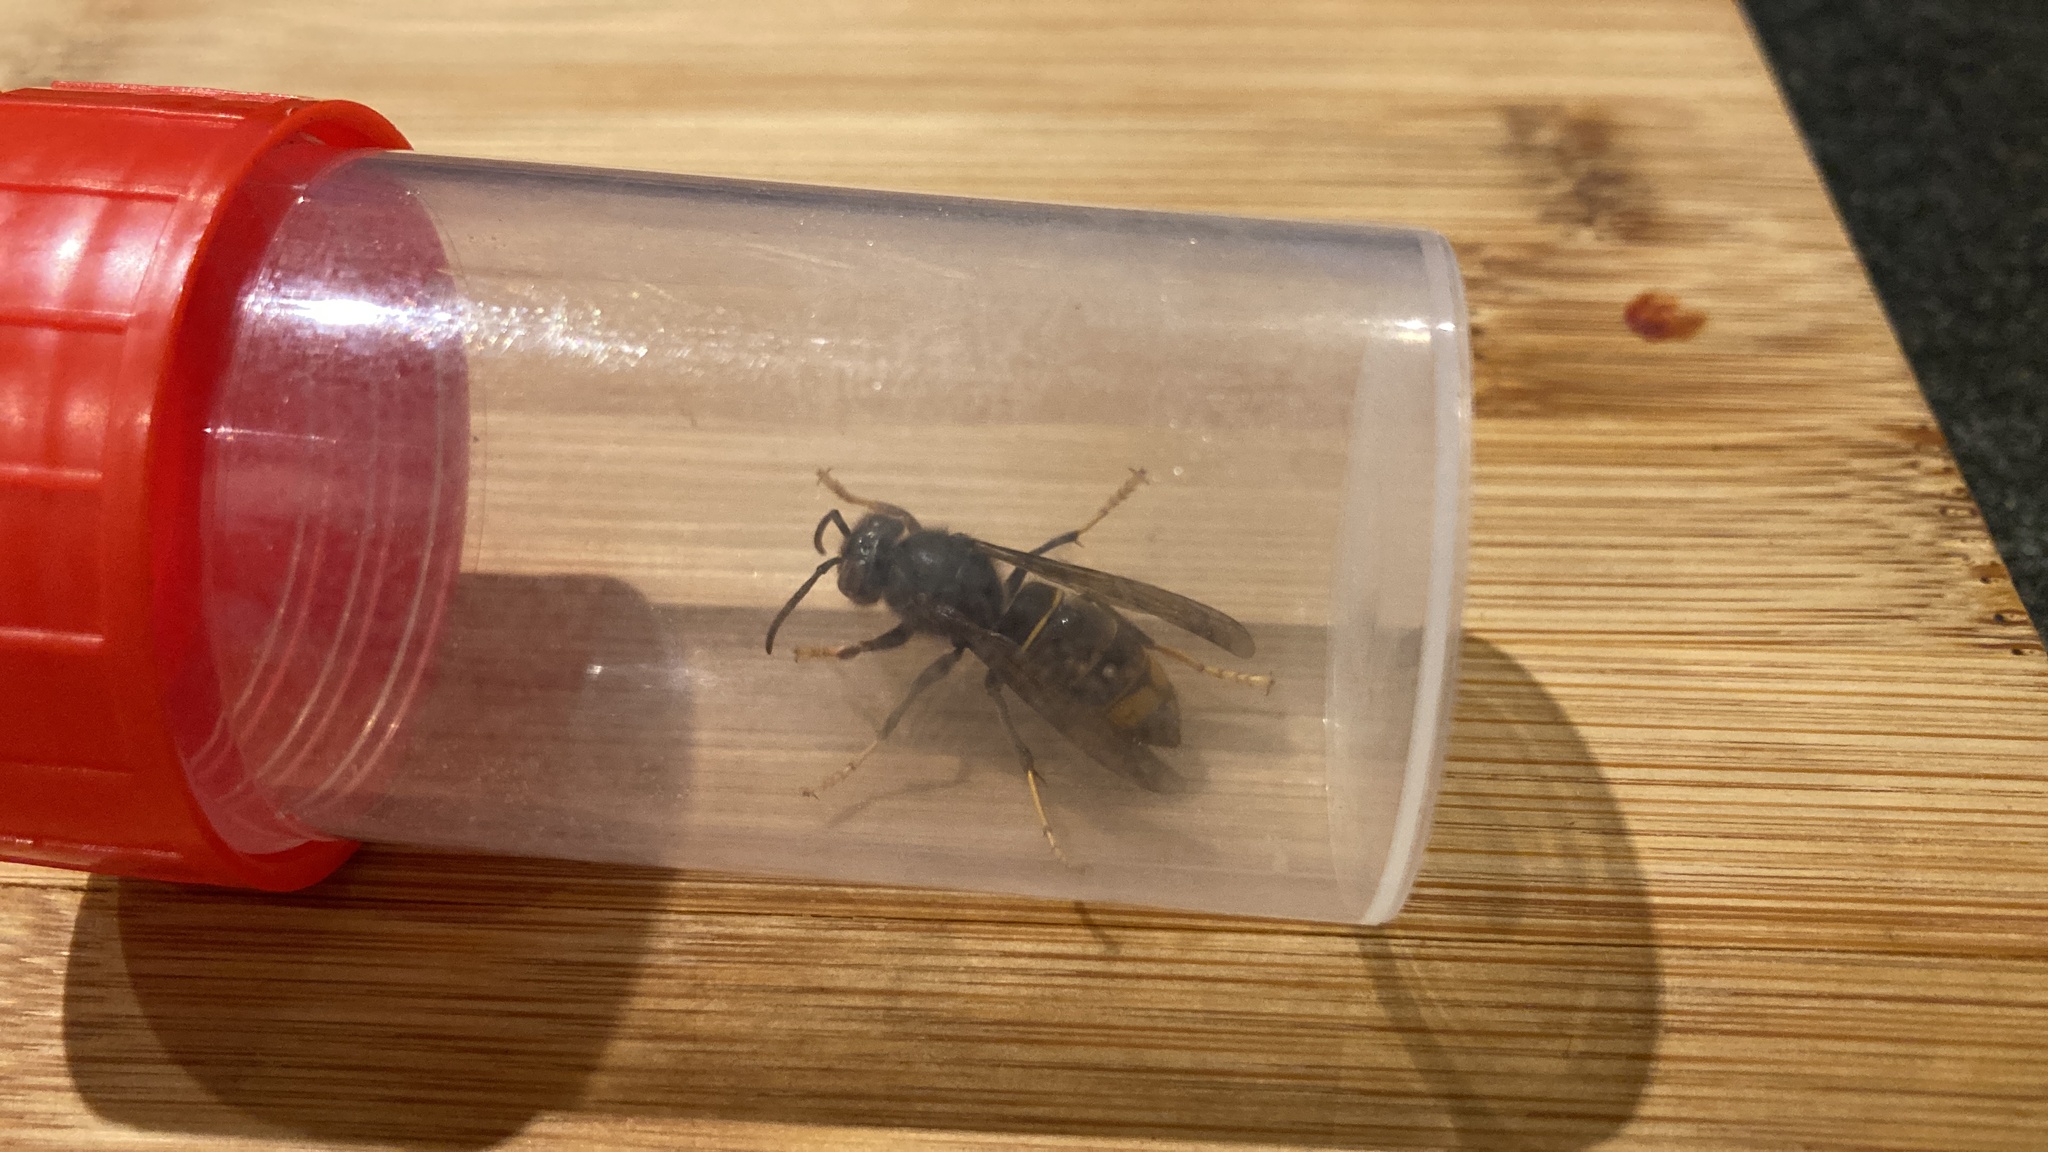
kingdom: Animalia
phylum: Arthropoda
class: Insecta
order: Hymenoptera
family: Vespidae
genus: Vespa
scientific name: Vespa velutina
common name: Asian hornet
